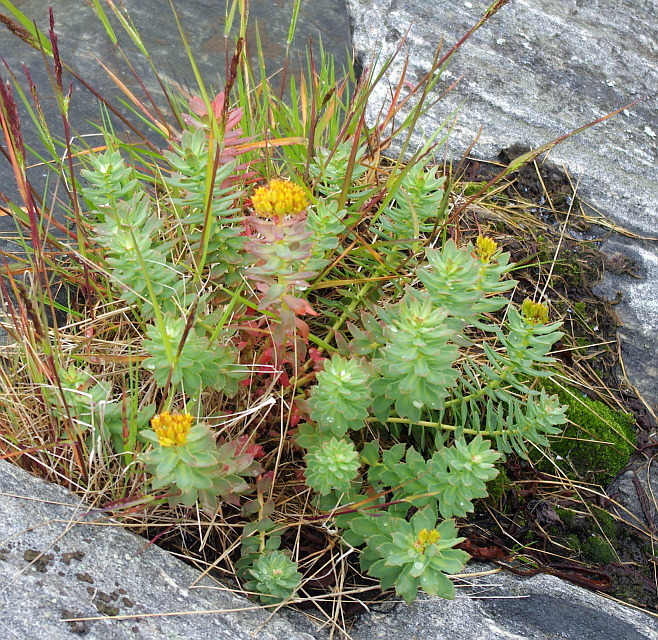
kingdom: Plantae
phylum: Tracheophyta
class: Magnoliopsida
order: Saxifragales
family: Crassulaceae
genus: Rhodiola
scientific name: Rhodiola rosea
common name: Roseroot
